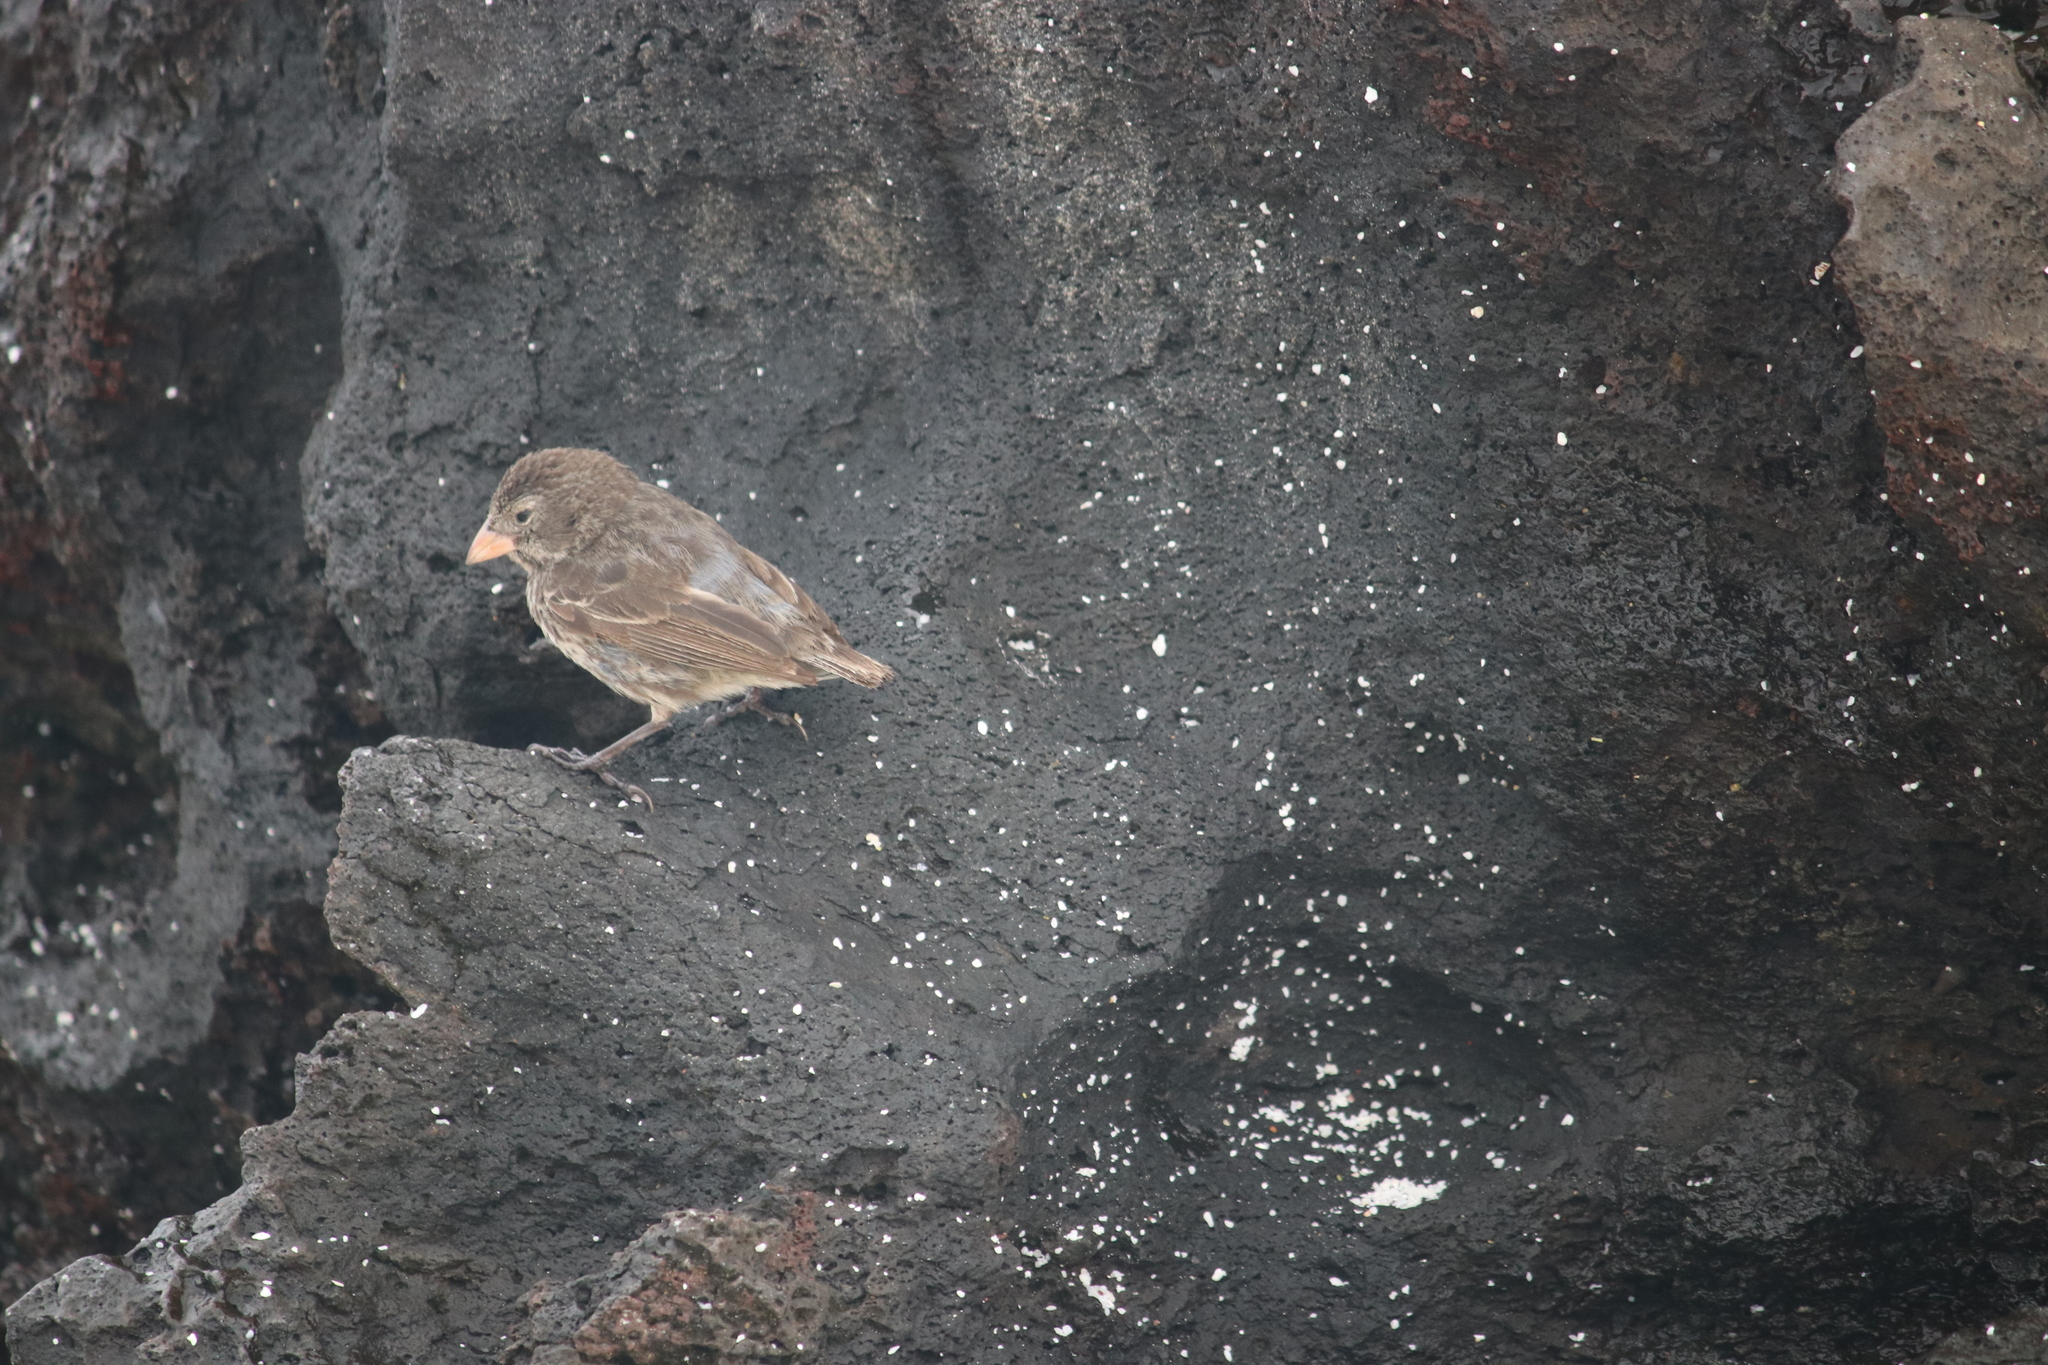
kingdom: Animalia
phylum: Chordata
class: Aves
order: Passeriformes
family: Thraupidae
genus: Geospiza
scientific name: Geospiza fuliginosa
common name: Small ground finch
